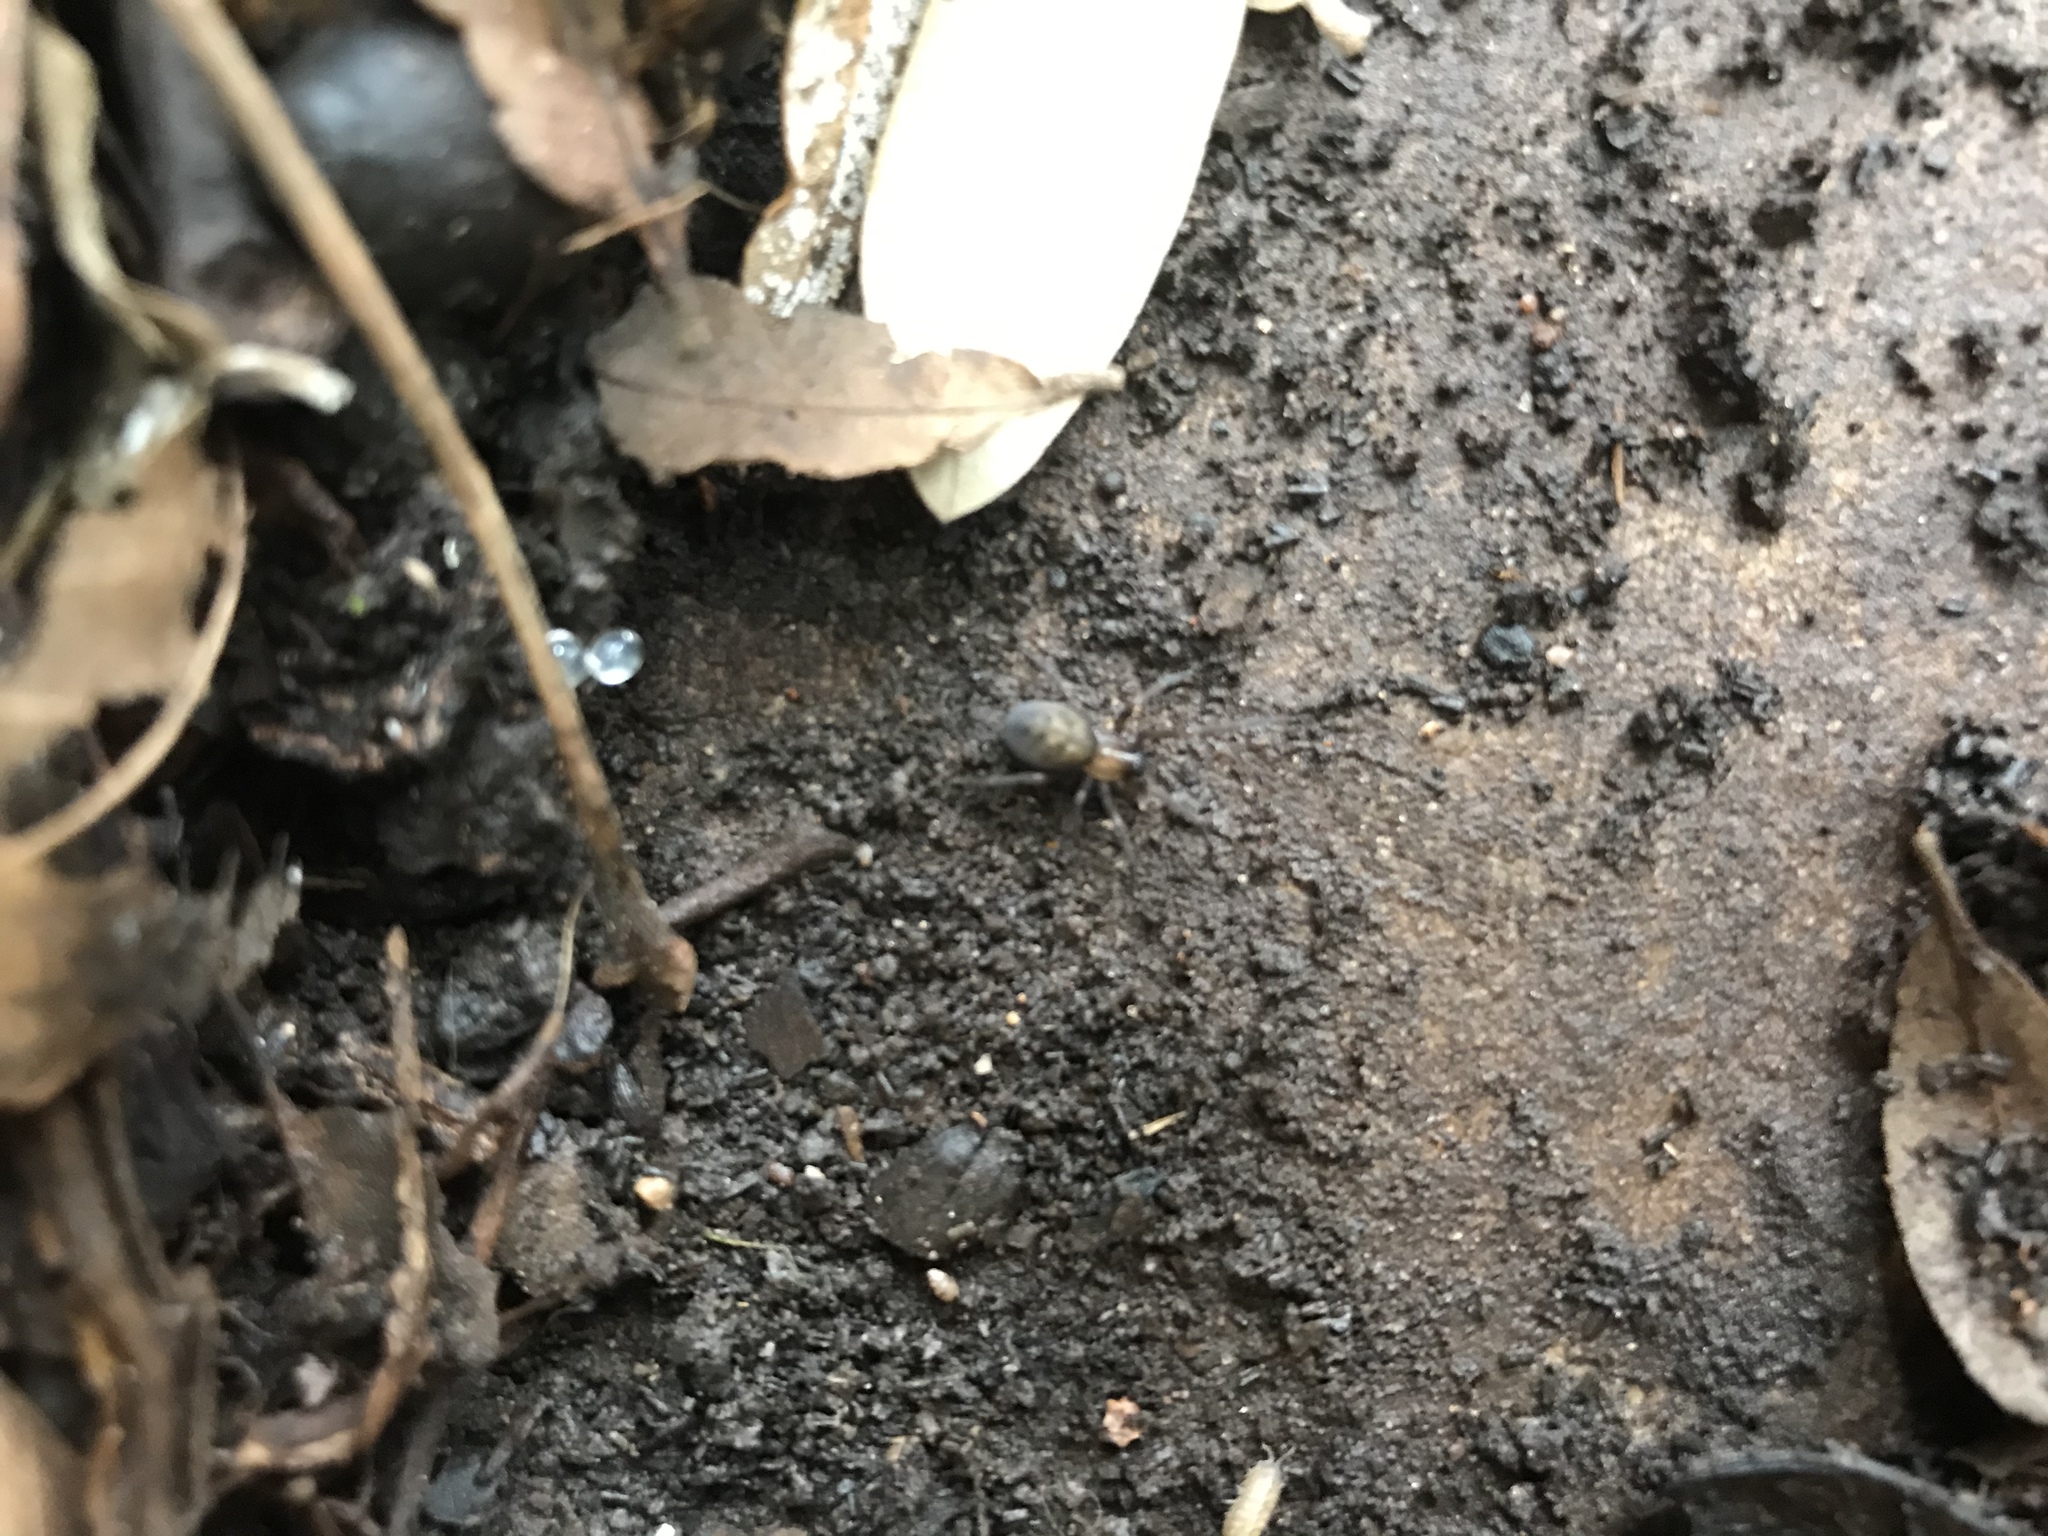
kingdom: Animalia
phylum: Arthropoda
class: Arachnida
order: Araneae
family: Desidae
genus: Metaltella
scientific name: Metaltella simoni
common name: Cribellate spider
